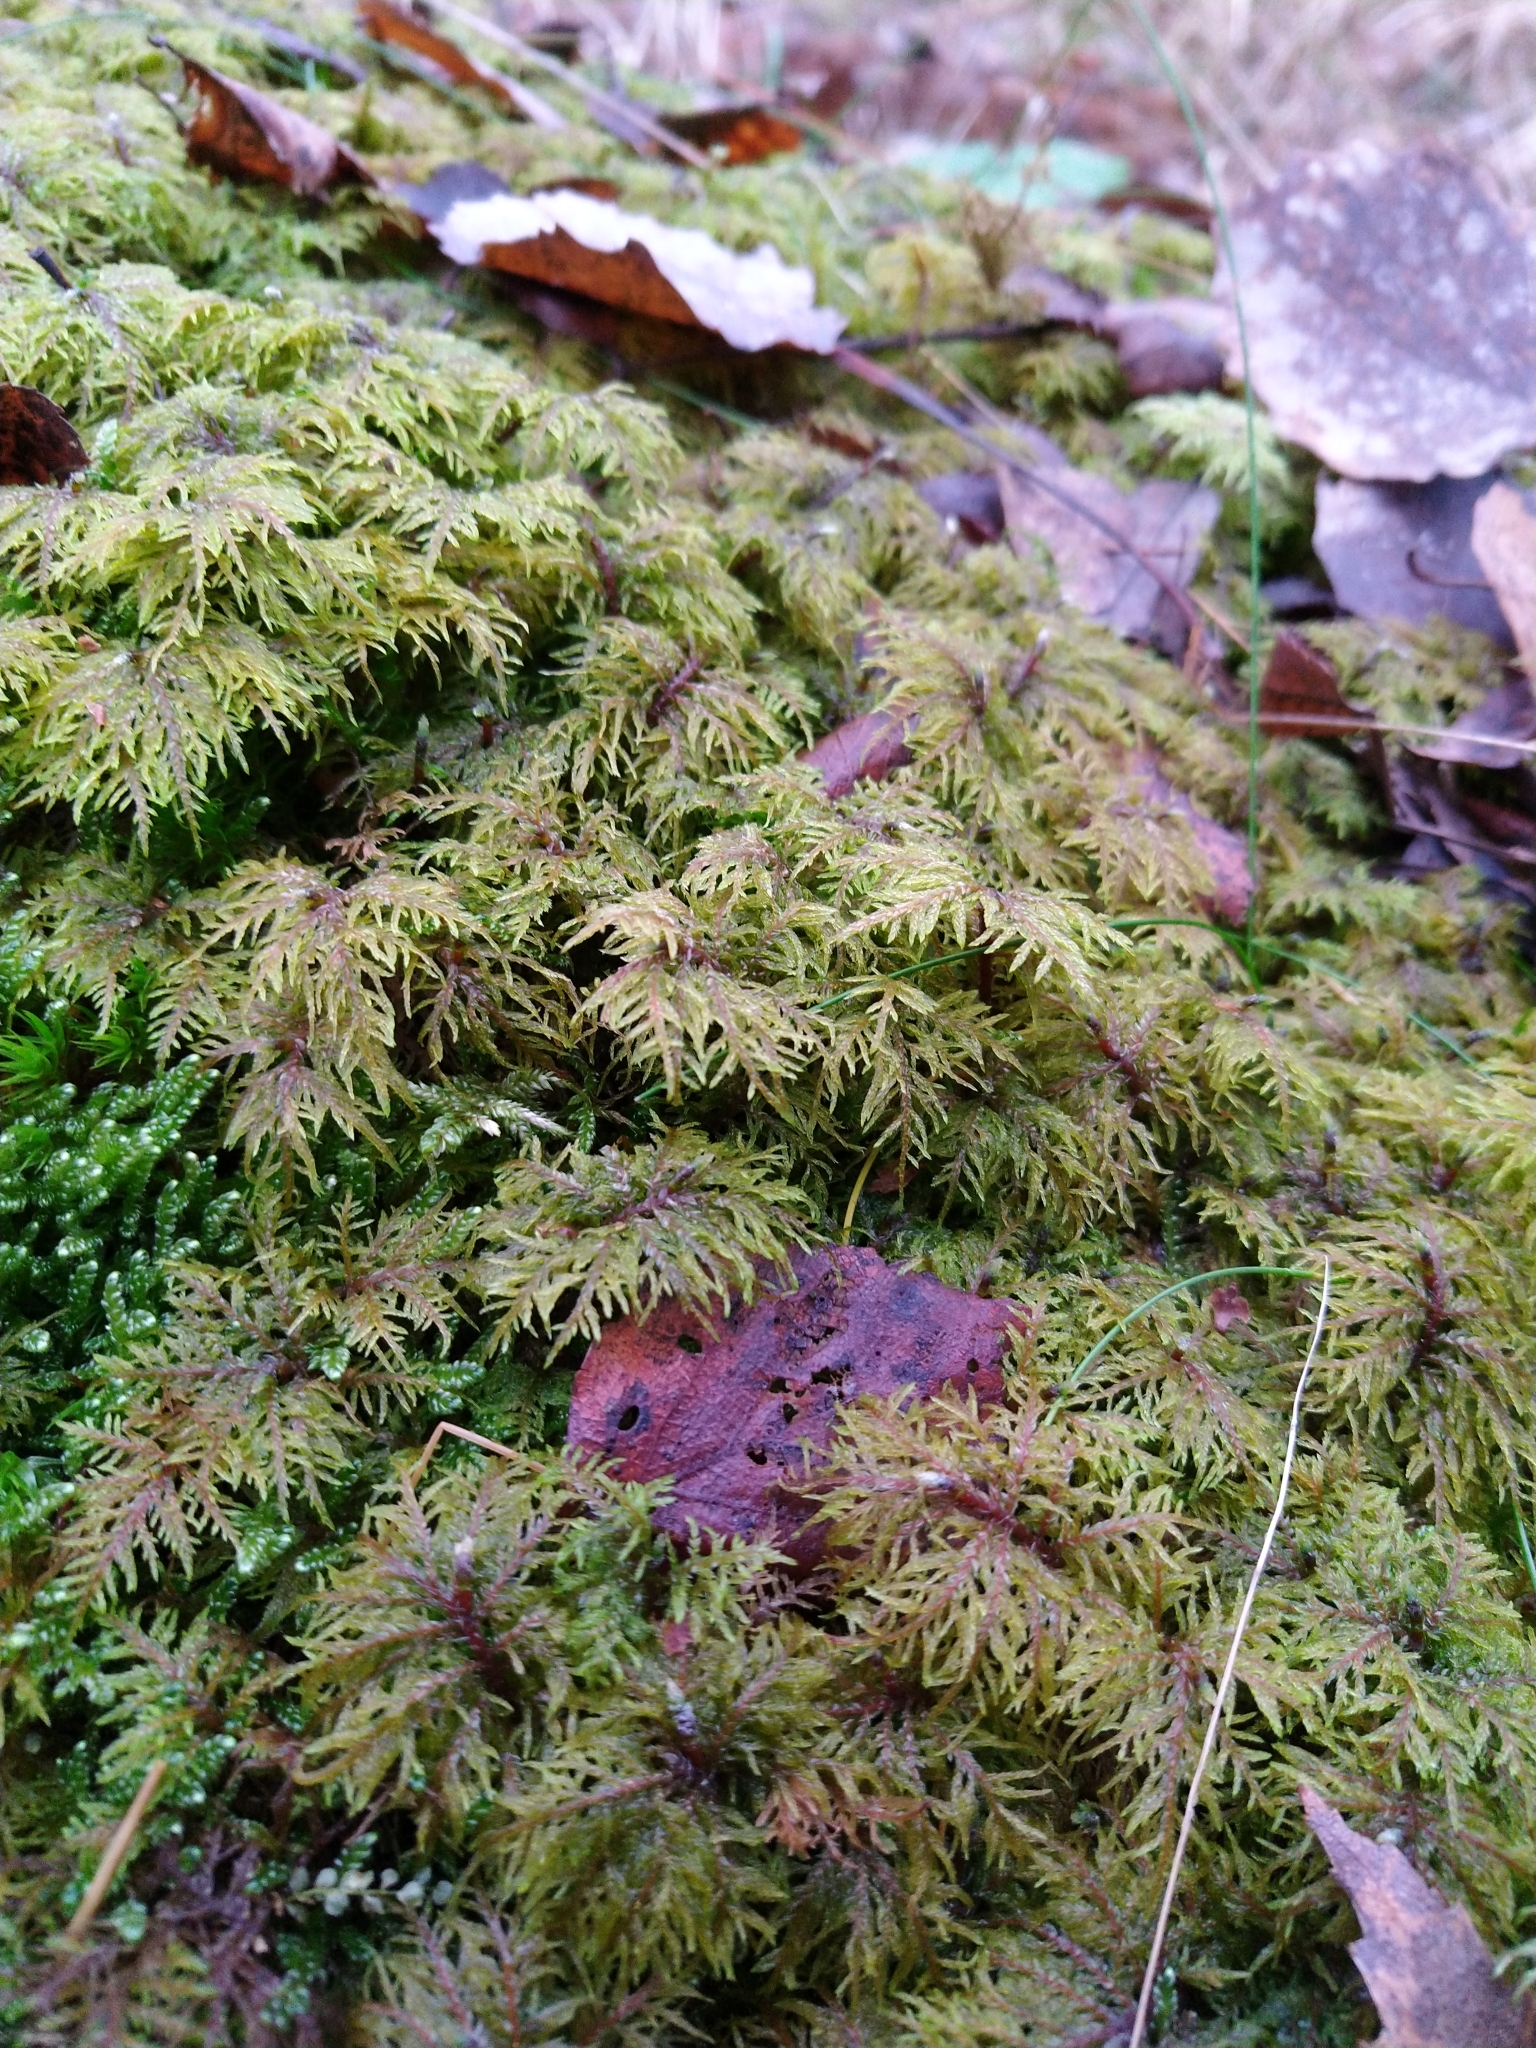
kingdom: Plantae
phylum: Bryophyta
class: Bryopsida
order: Hypnales
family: Hylocomiaceae
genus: Hylocomium
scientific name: Hylocomium splendens
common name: Stairstep moss
